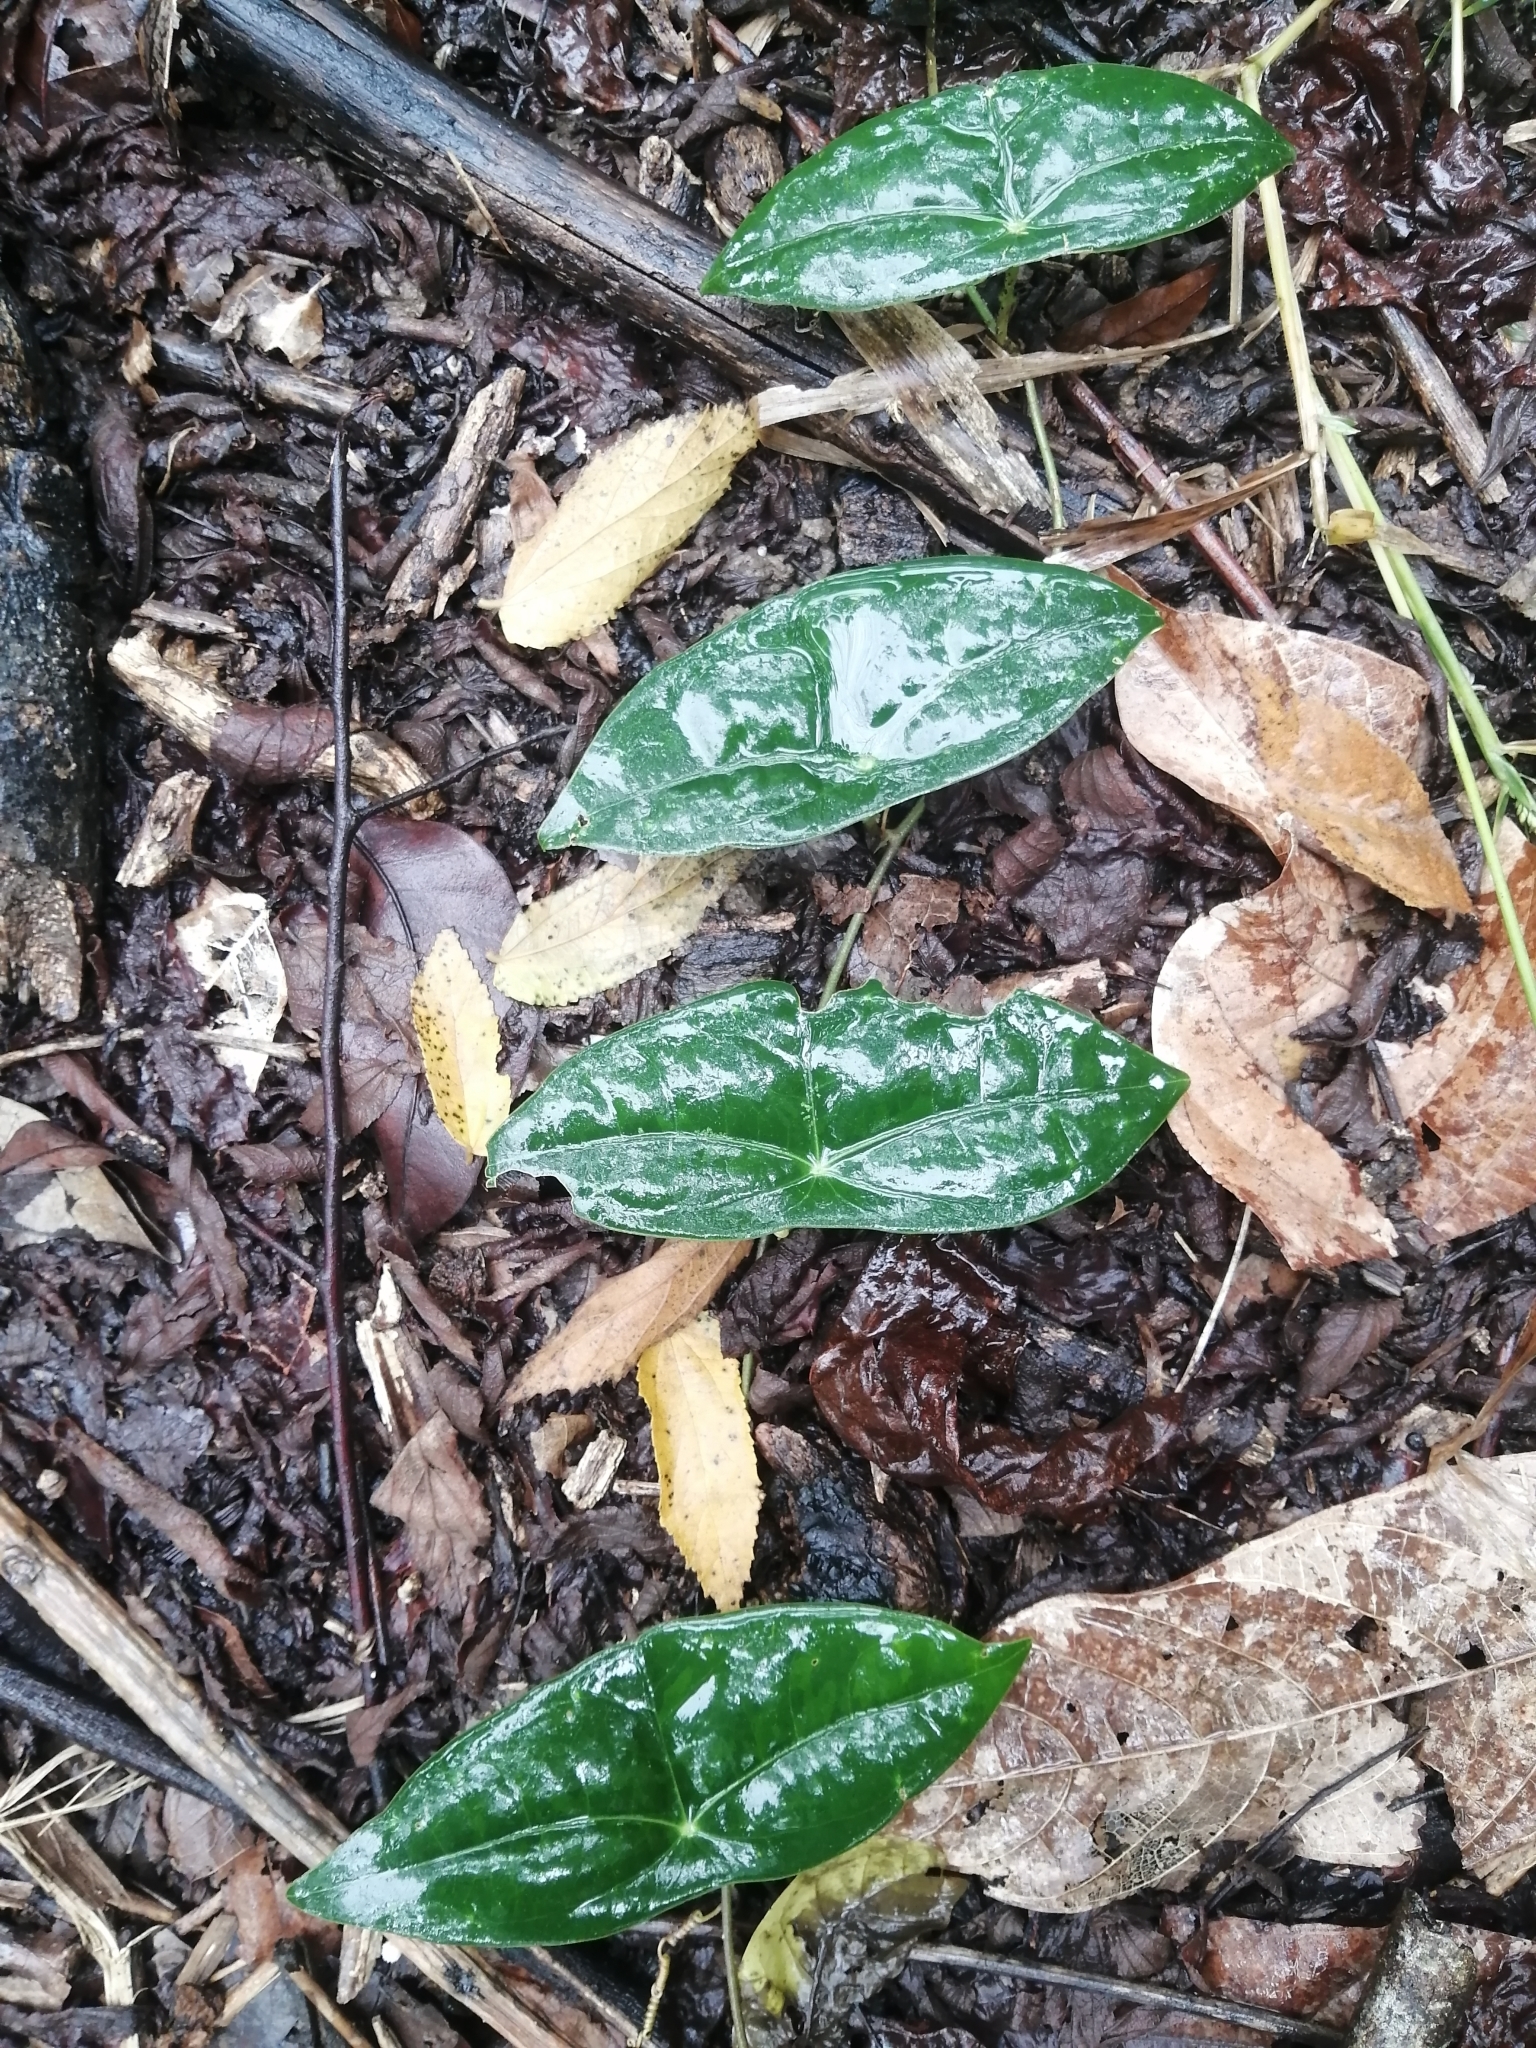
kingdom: Plantae
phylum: Tracheophyta
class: Magnoliopsida
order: Malpighiales
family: Passifloraceae
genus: Passiflora
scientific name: Passiflora sexocellata
